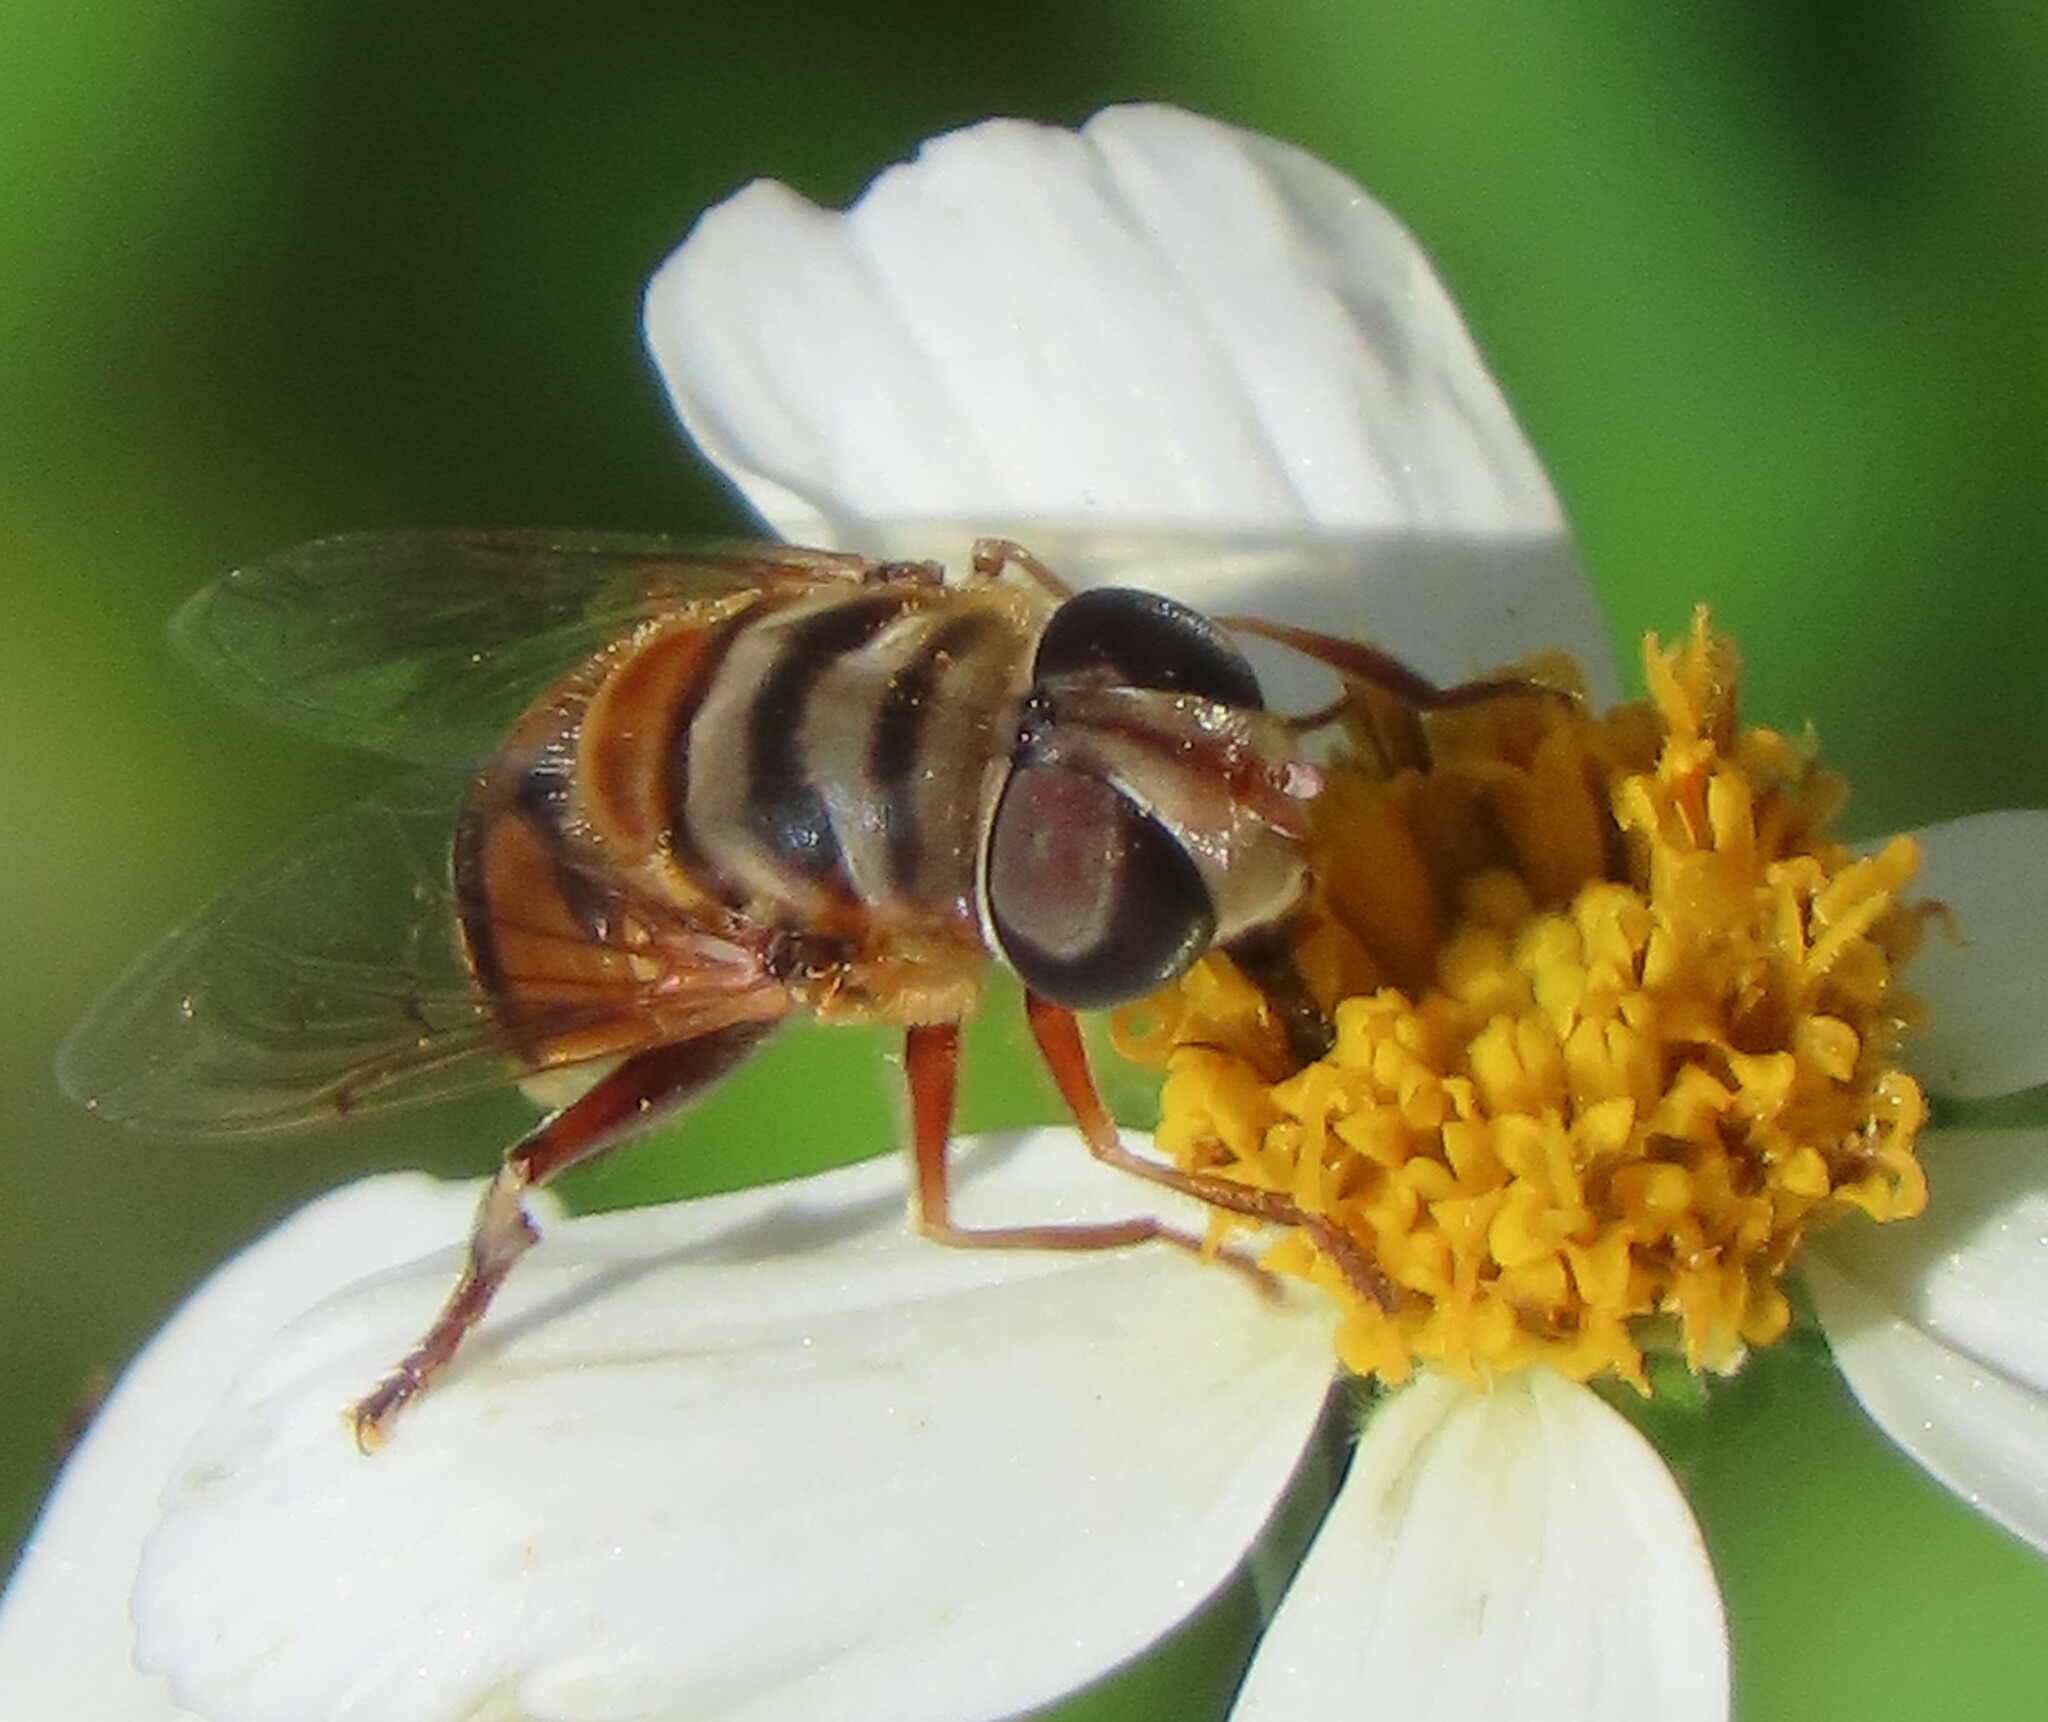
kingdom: Animalia
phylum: Arthropoda
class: Insecta
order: Diptera
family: Syrphidae
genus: Palpada
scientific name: Palpada vinetorum
